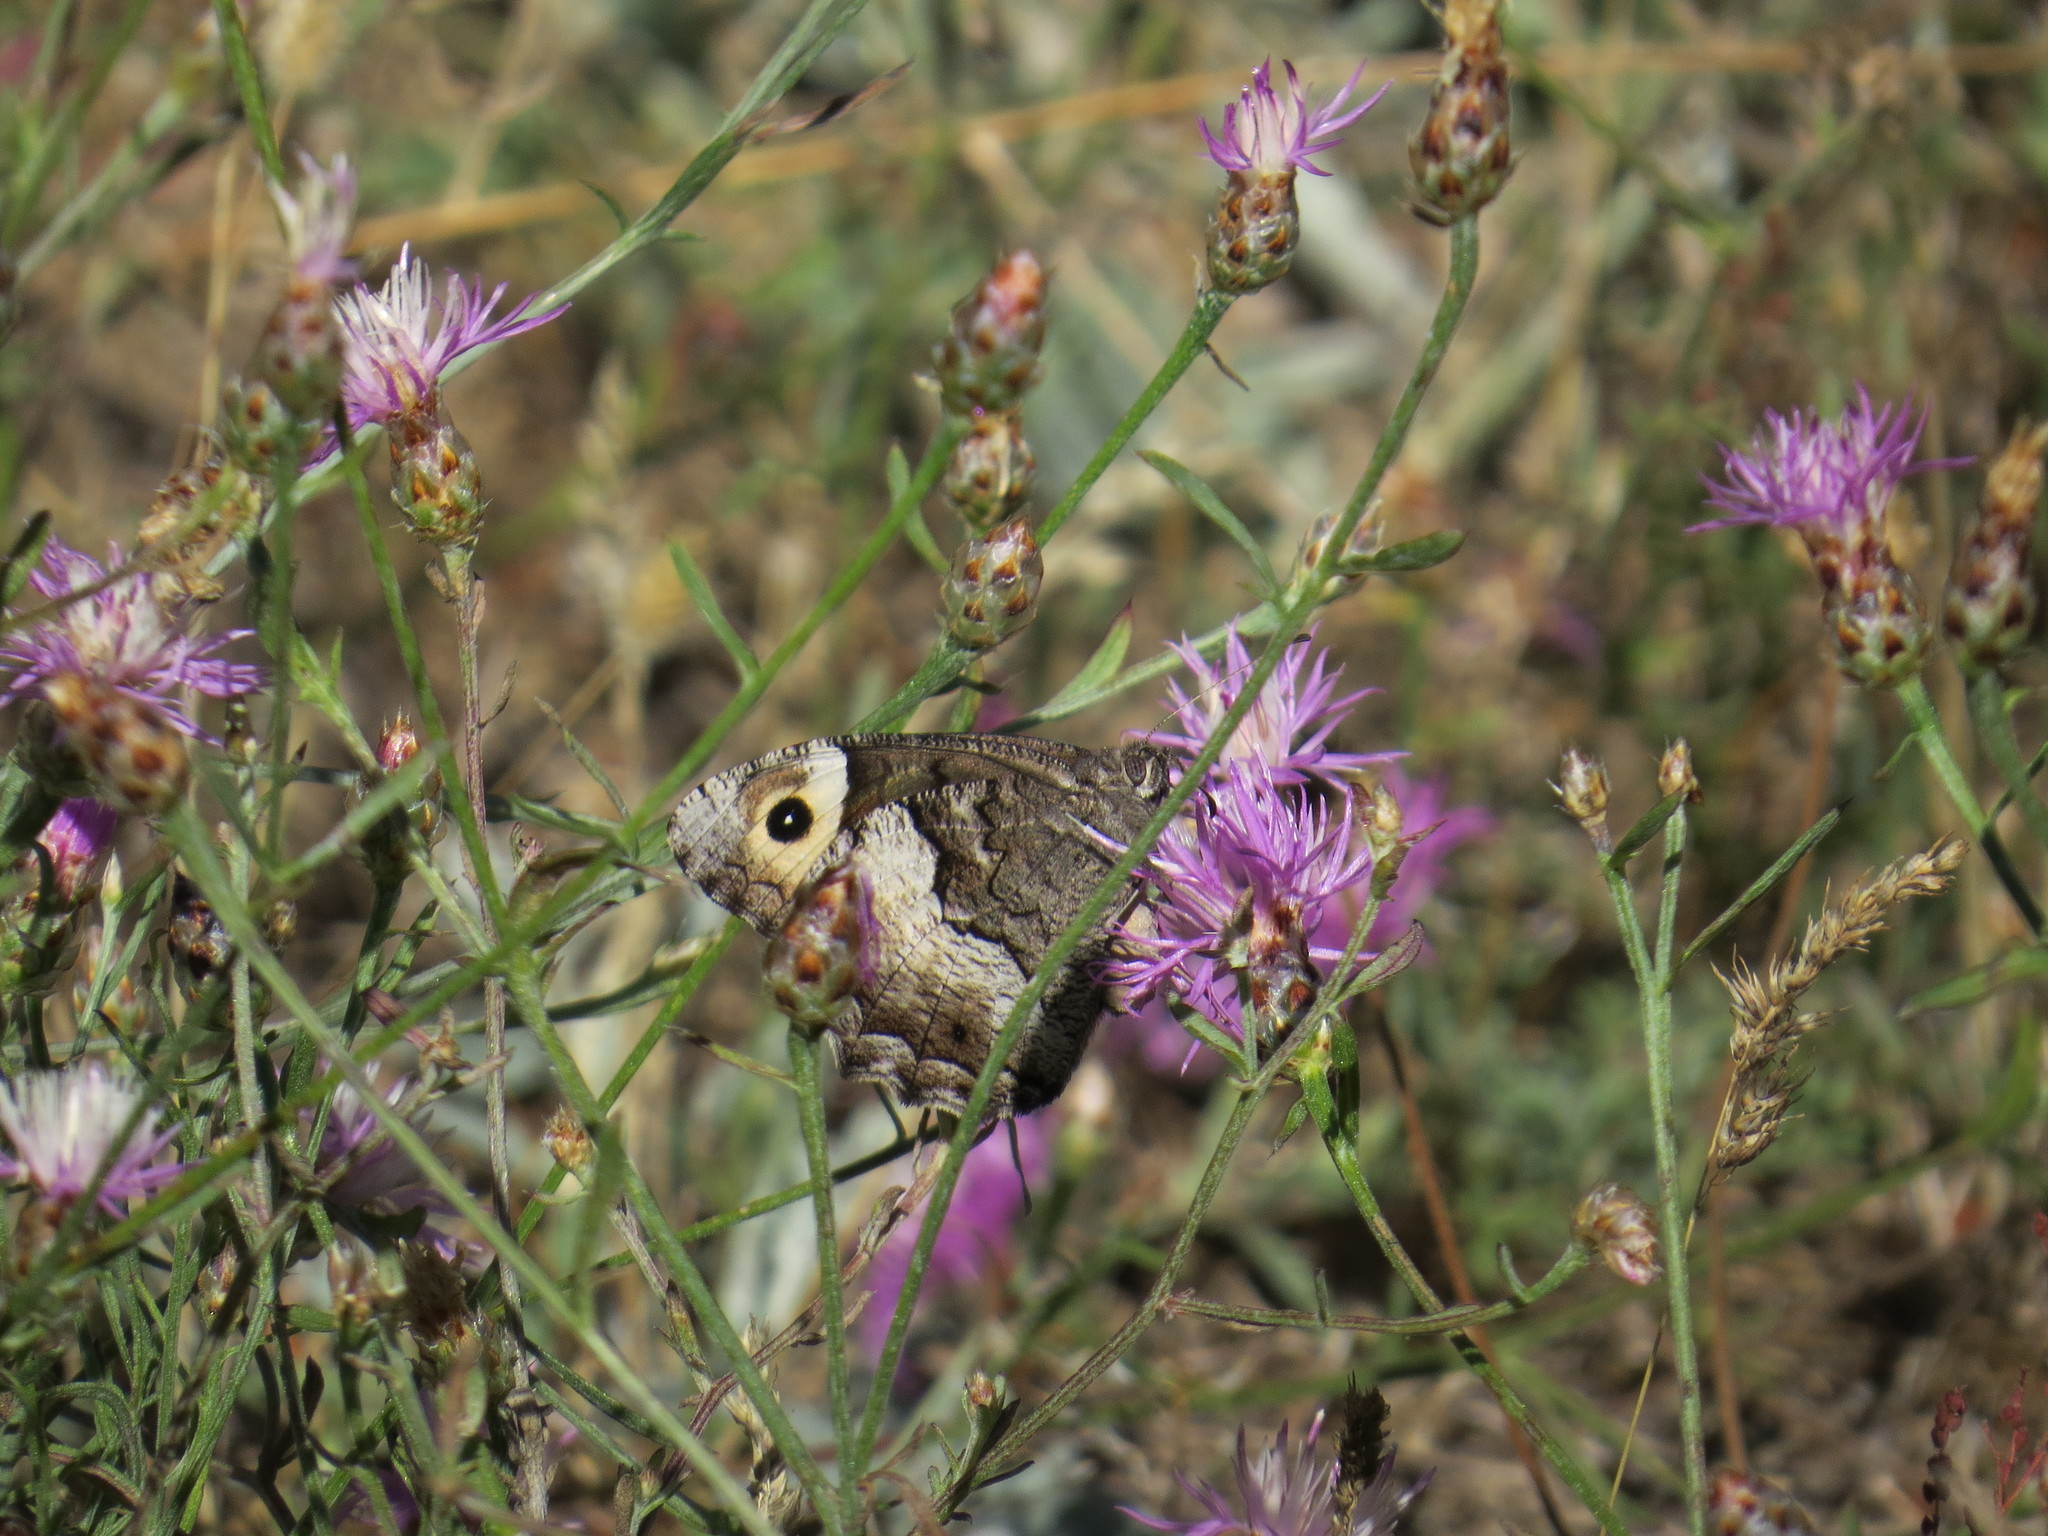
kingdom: Animalia
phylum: Arthropoda
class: Insecta
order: Lepidoptera
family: Nymphalidae
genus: Hipparchia
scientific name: Hipparchia hermione
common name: Rock grayling
